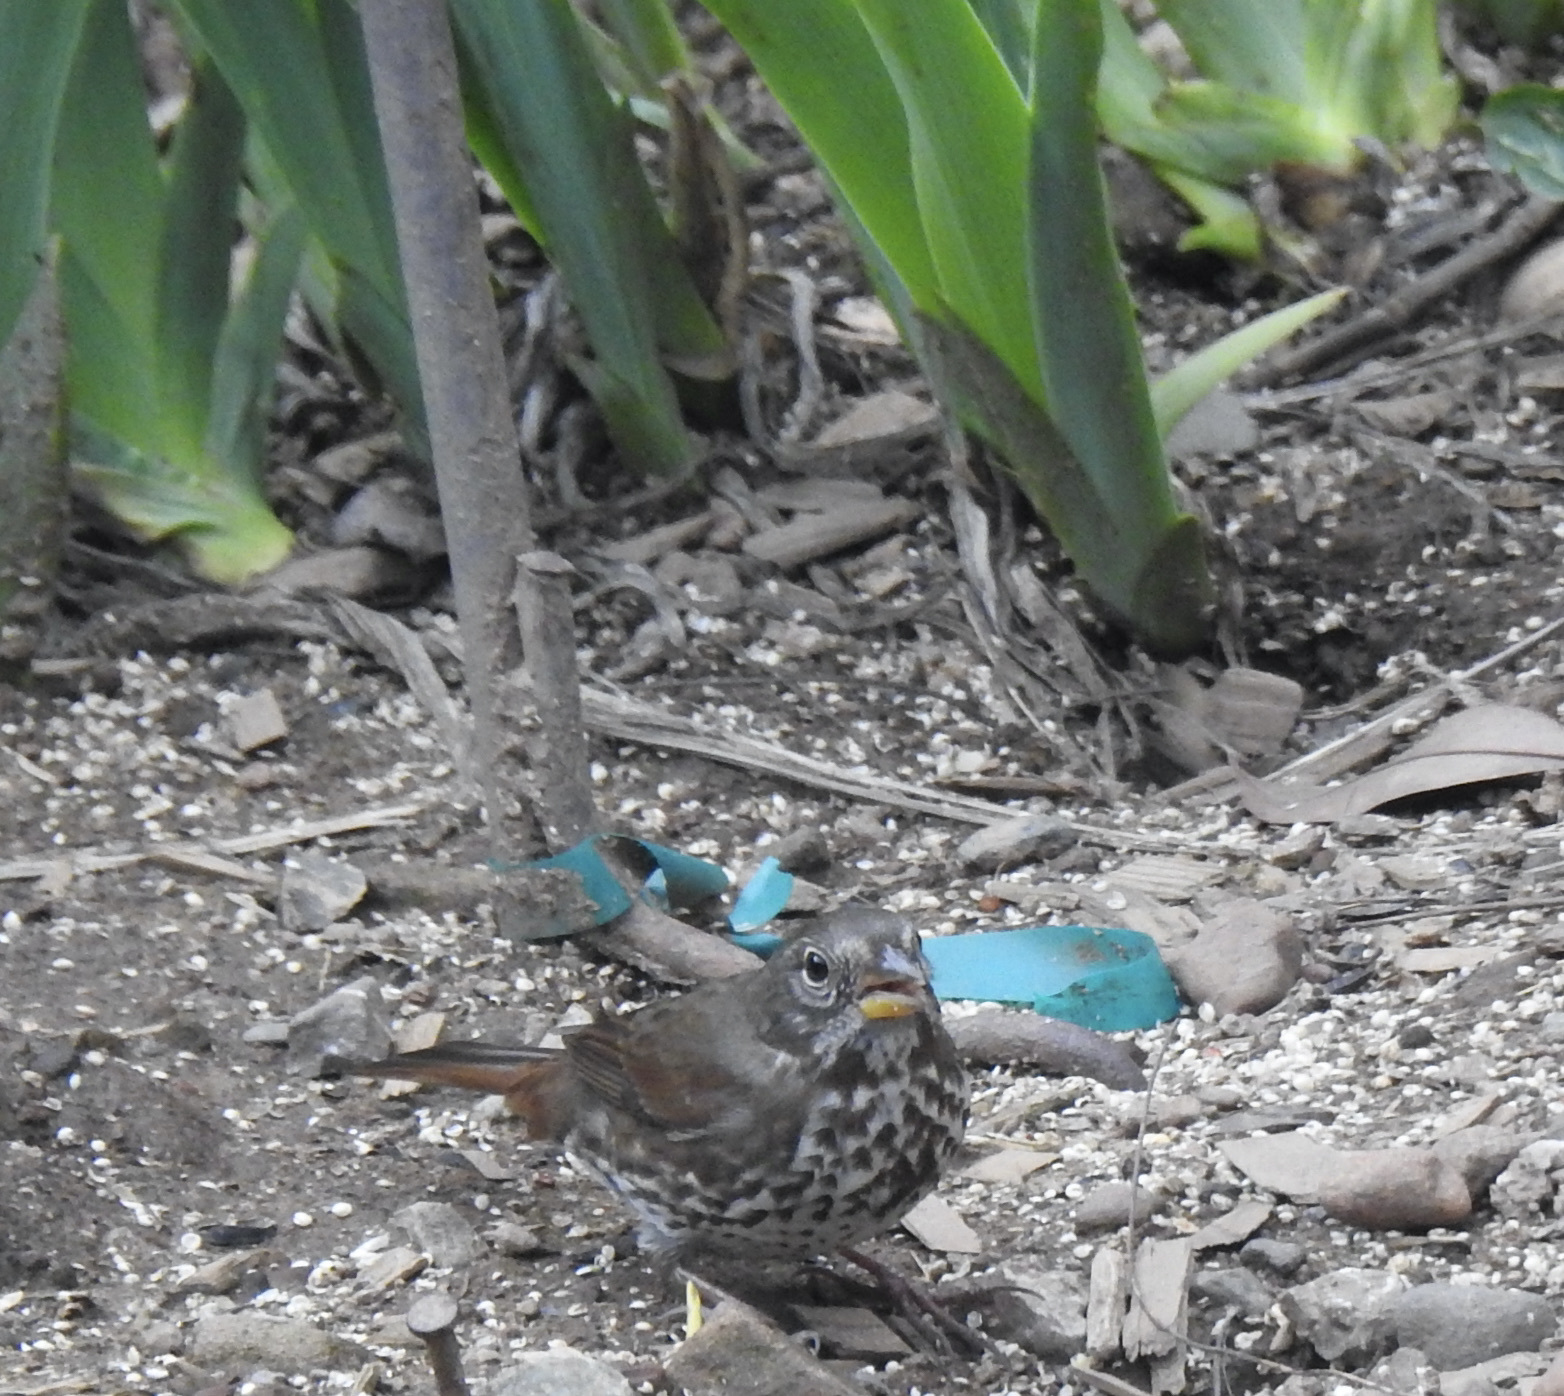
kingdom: Animalia
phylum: Chordata
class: Aves
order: Passeriformes
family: Passerellidae
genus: Passerella
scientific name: Passerella iliaca
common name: Fox sparrow
